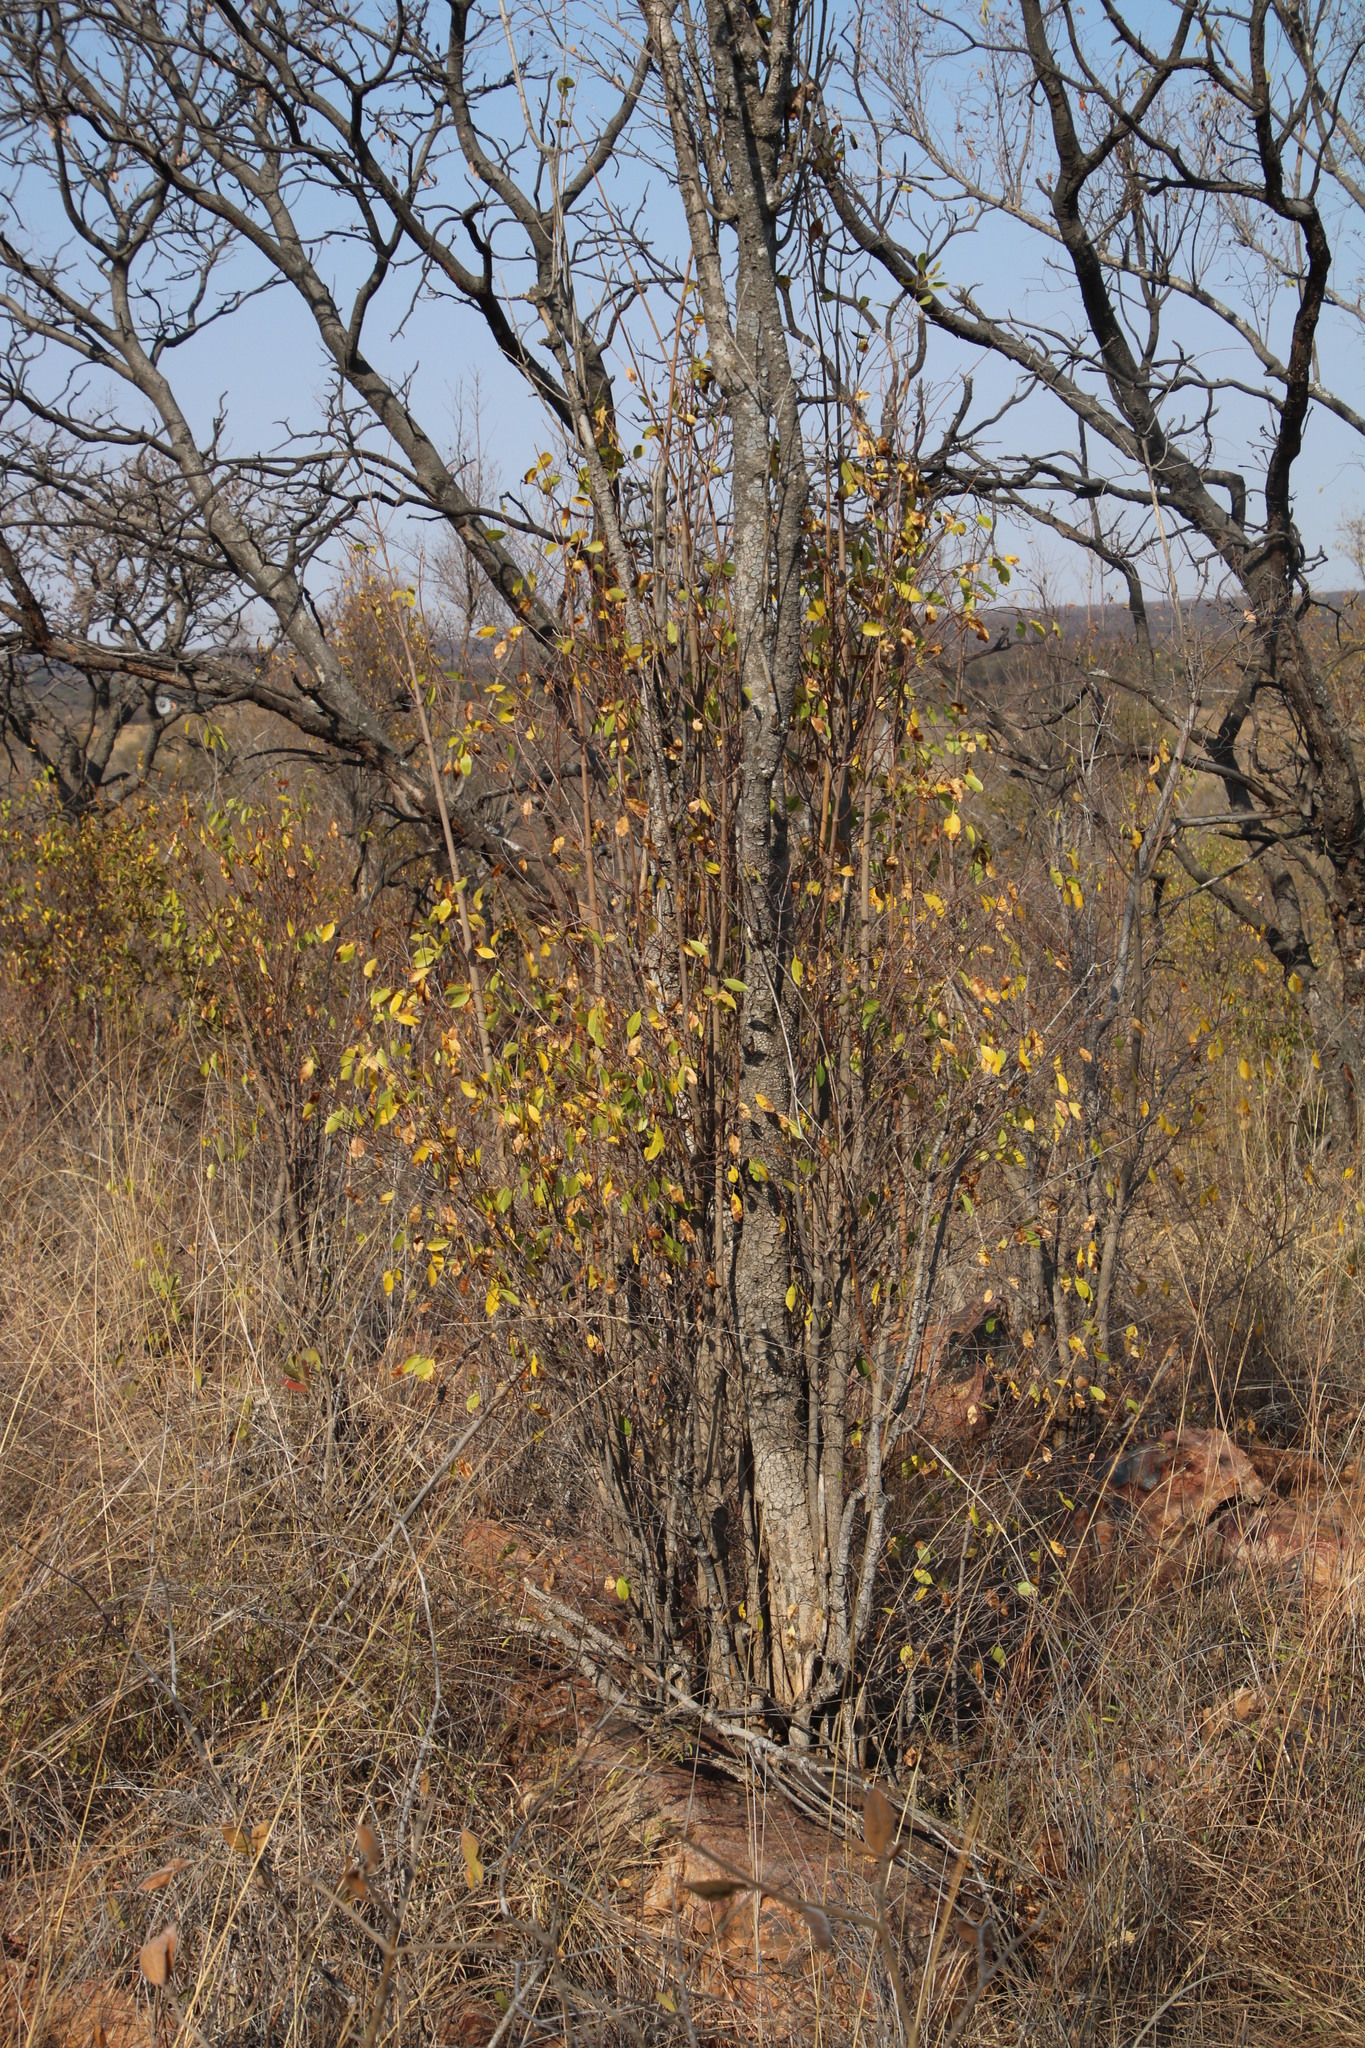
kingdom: Plantae
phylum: Tracheophyta
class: Magnoliopsida
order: Gentianales
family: Apocynaceae
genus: Diplorhynchus
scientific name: Diplorhynchus condylocarpon
